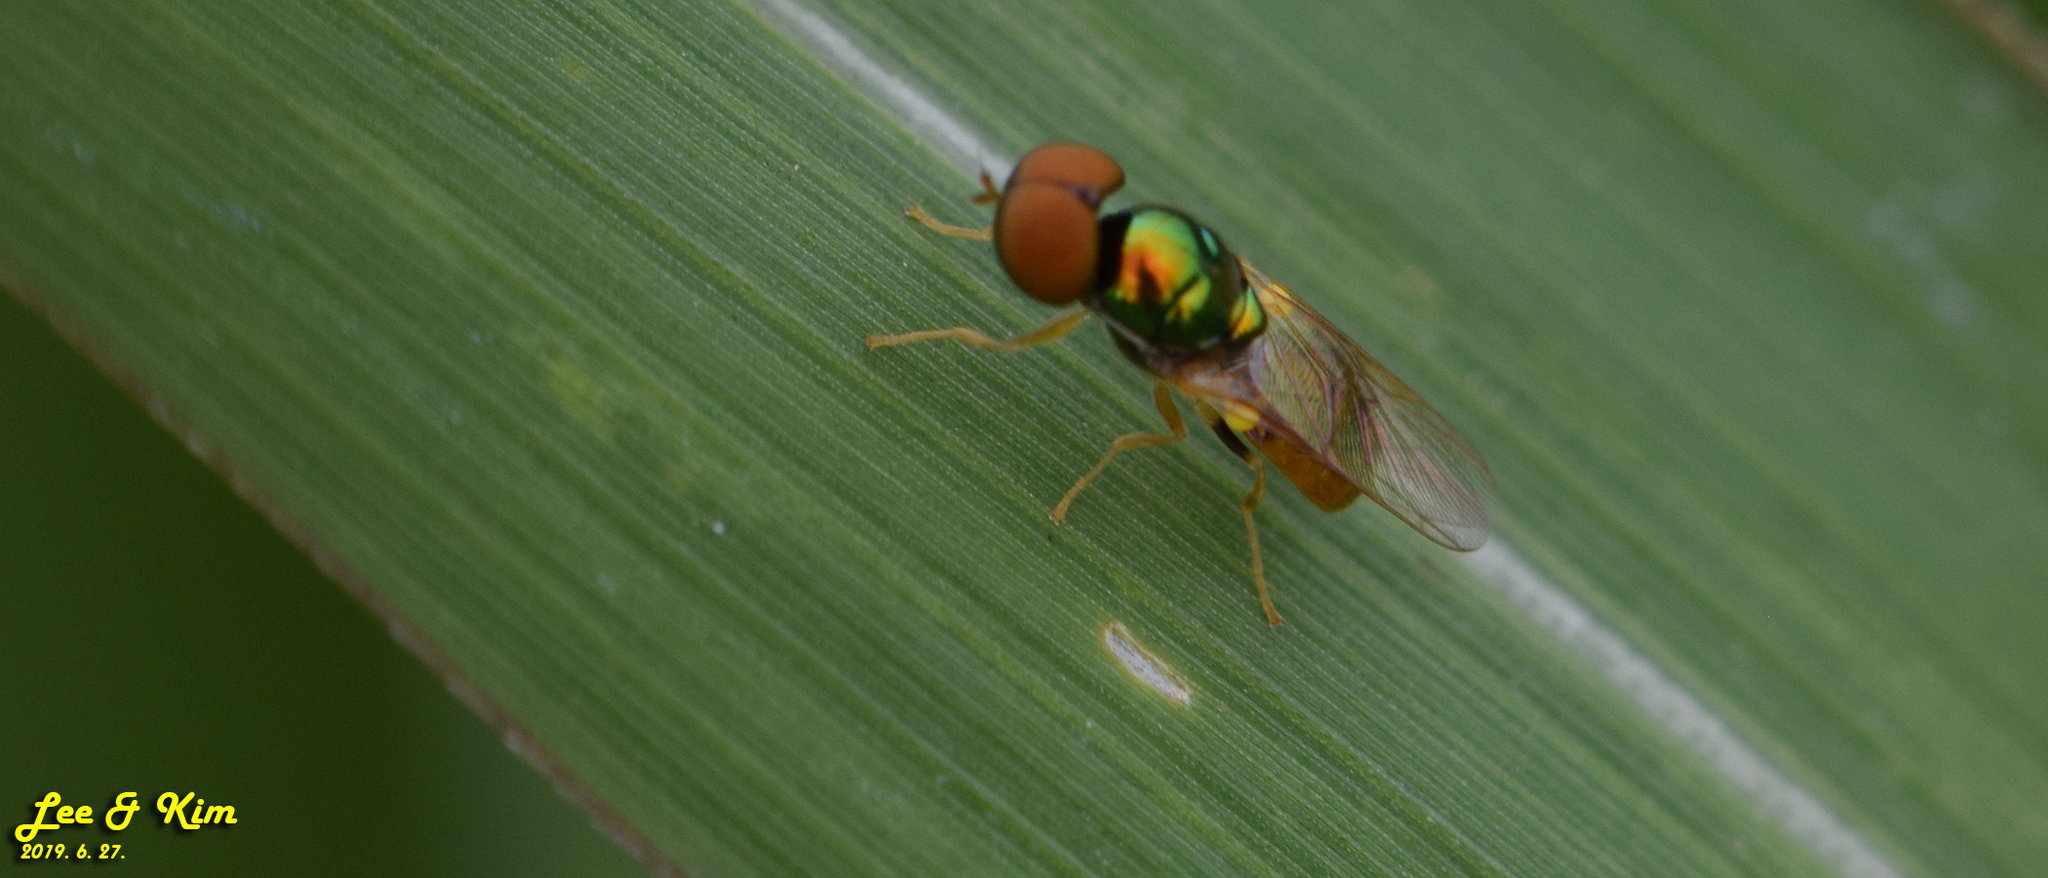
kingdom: Animalia
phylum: Arthropoda
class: Insecta
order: Diptera
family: Stratiomyidae
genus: Microchrysa
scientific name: Microchrysa flaviventris
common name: Soldier fly
